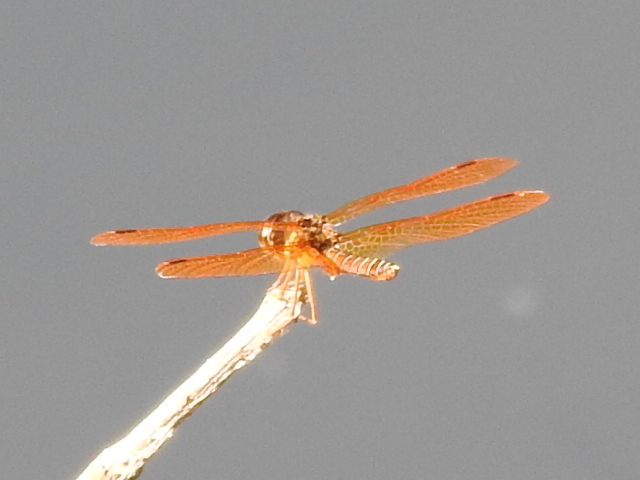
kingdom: Animalia
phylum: Arthropoda
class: Insecta
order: Odonata
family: Libellulidae
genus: Perithemis
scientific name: Perithemis tenera
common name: Eastern amberwing
